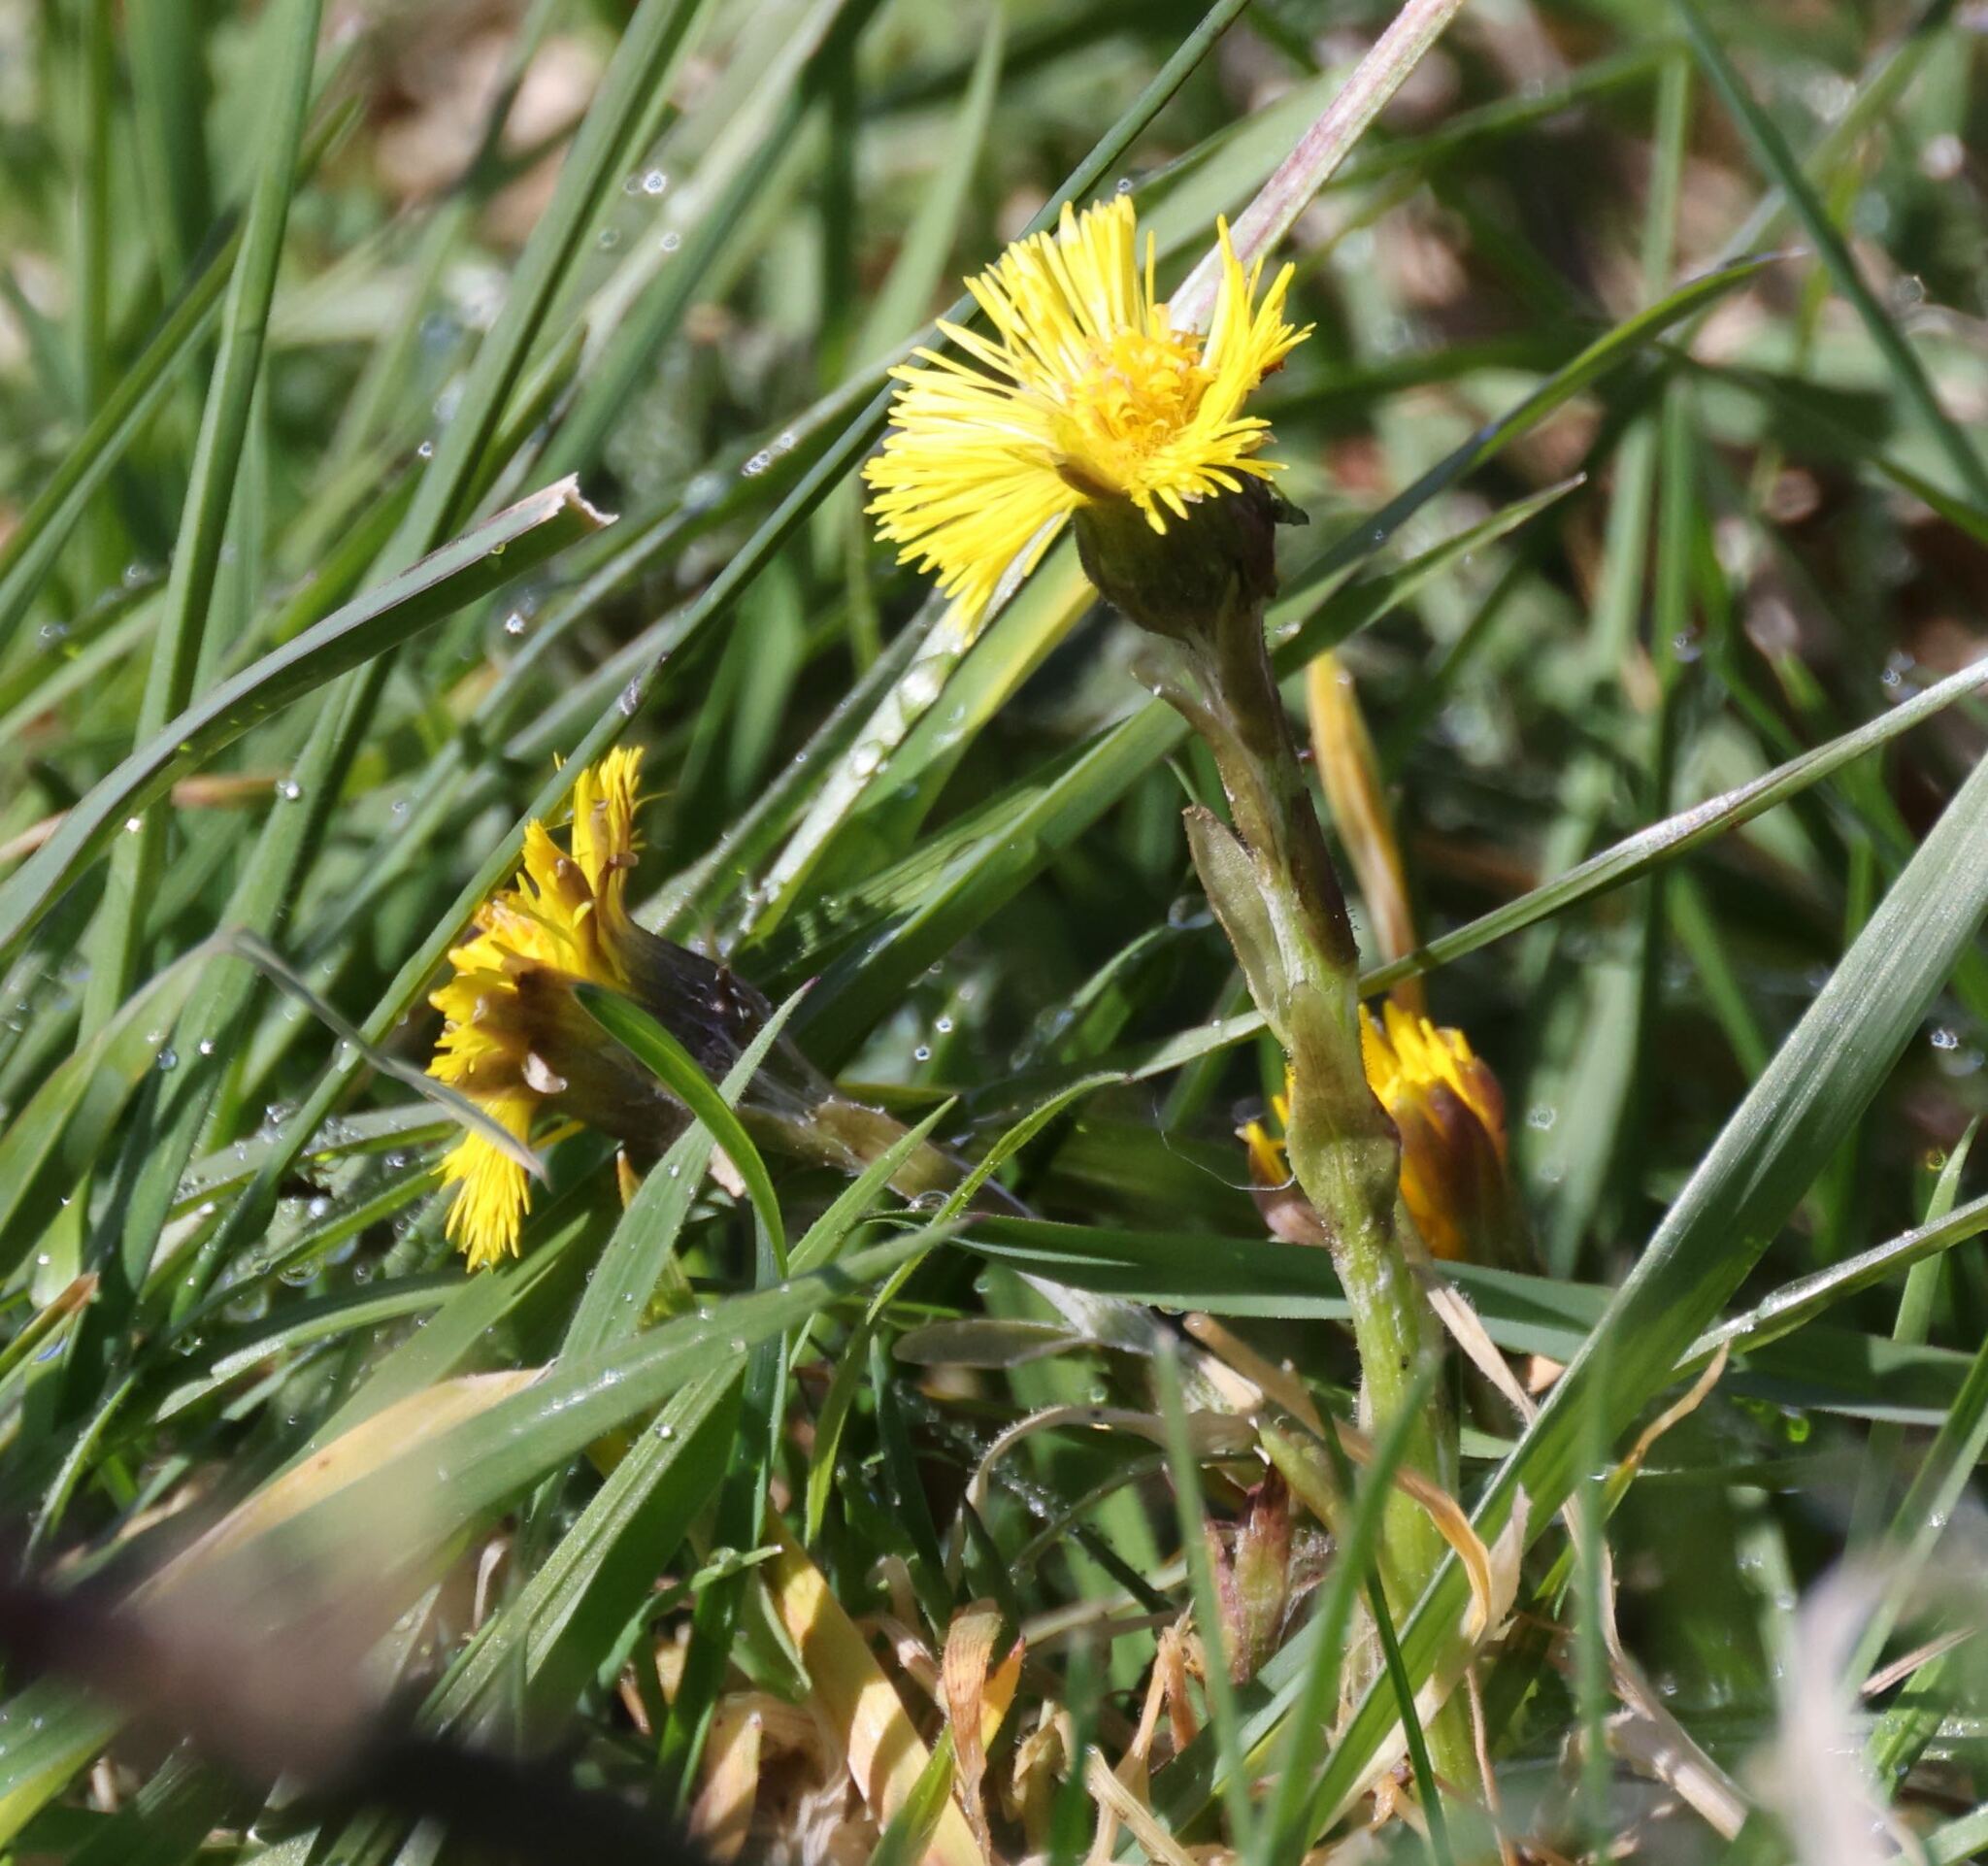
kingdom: Plantae
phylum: Tracheophyta
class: Magnoliopsida
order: Asterales
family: Asteraceae
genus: Tussilago
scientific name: Tussilago farfara
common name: Coltsfoot
